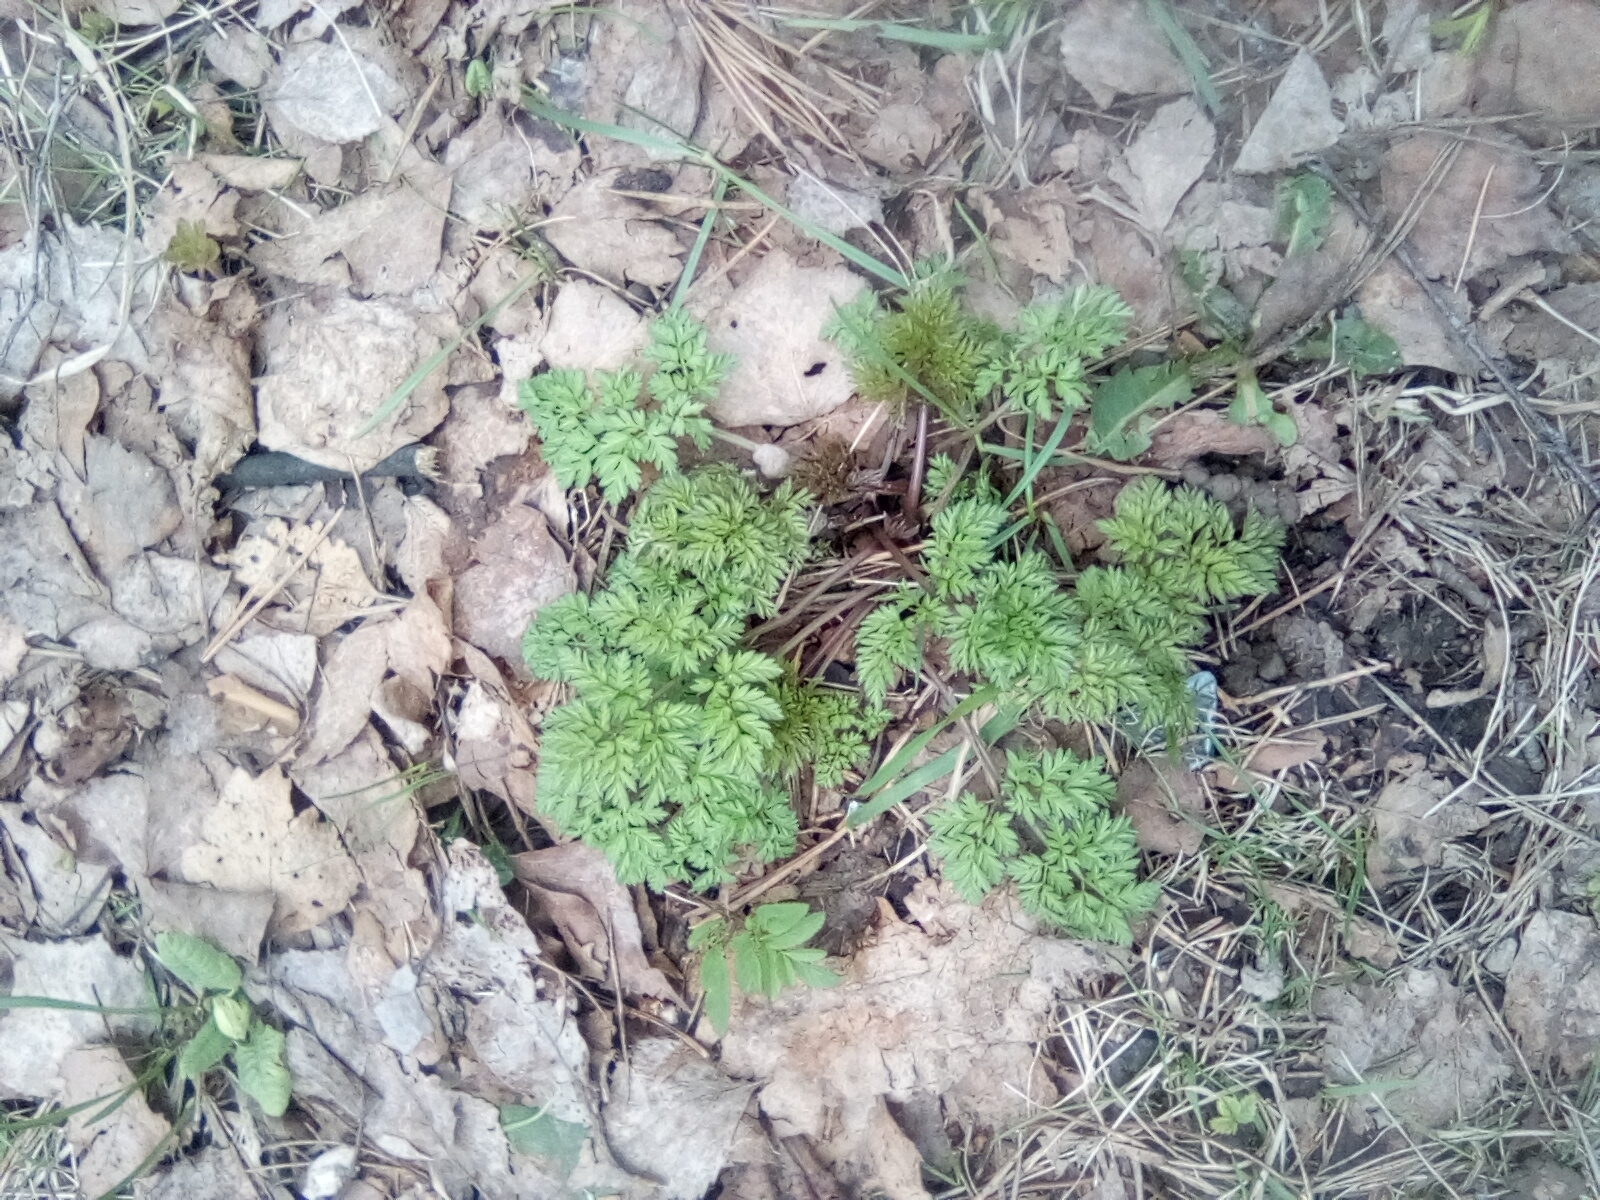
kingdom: Plantae
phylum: Tracheophyta
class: Magnoliopsida
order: Apiales
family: Apiaceae
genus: Anthriscus
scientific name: Anthriscus sylvestris
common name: Cow parsley
